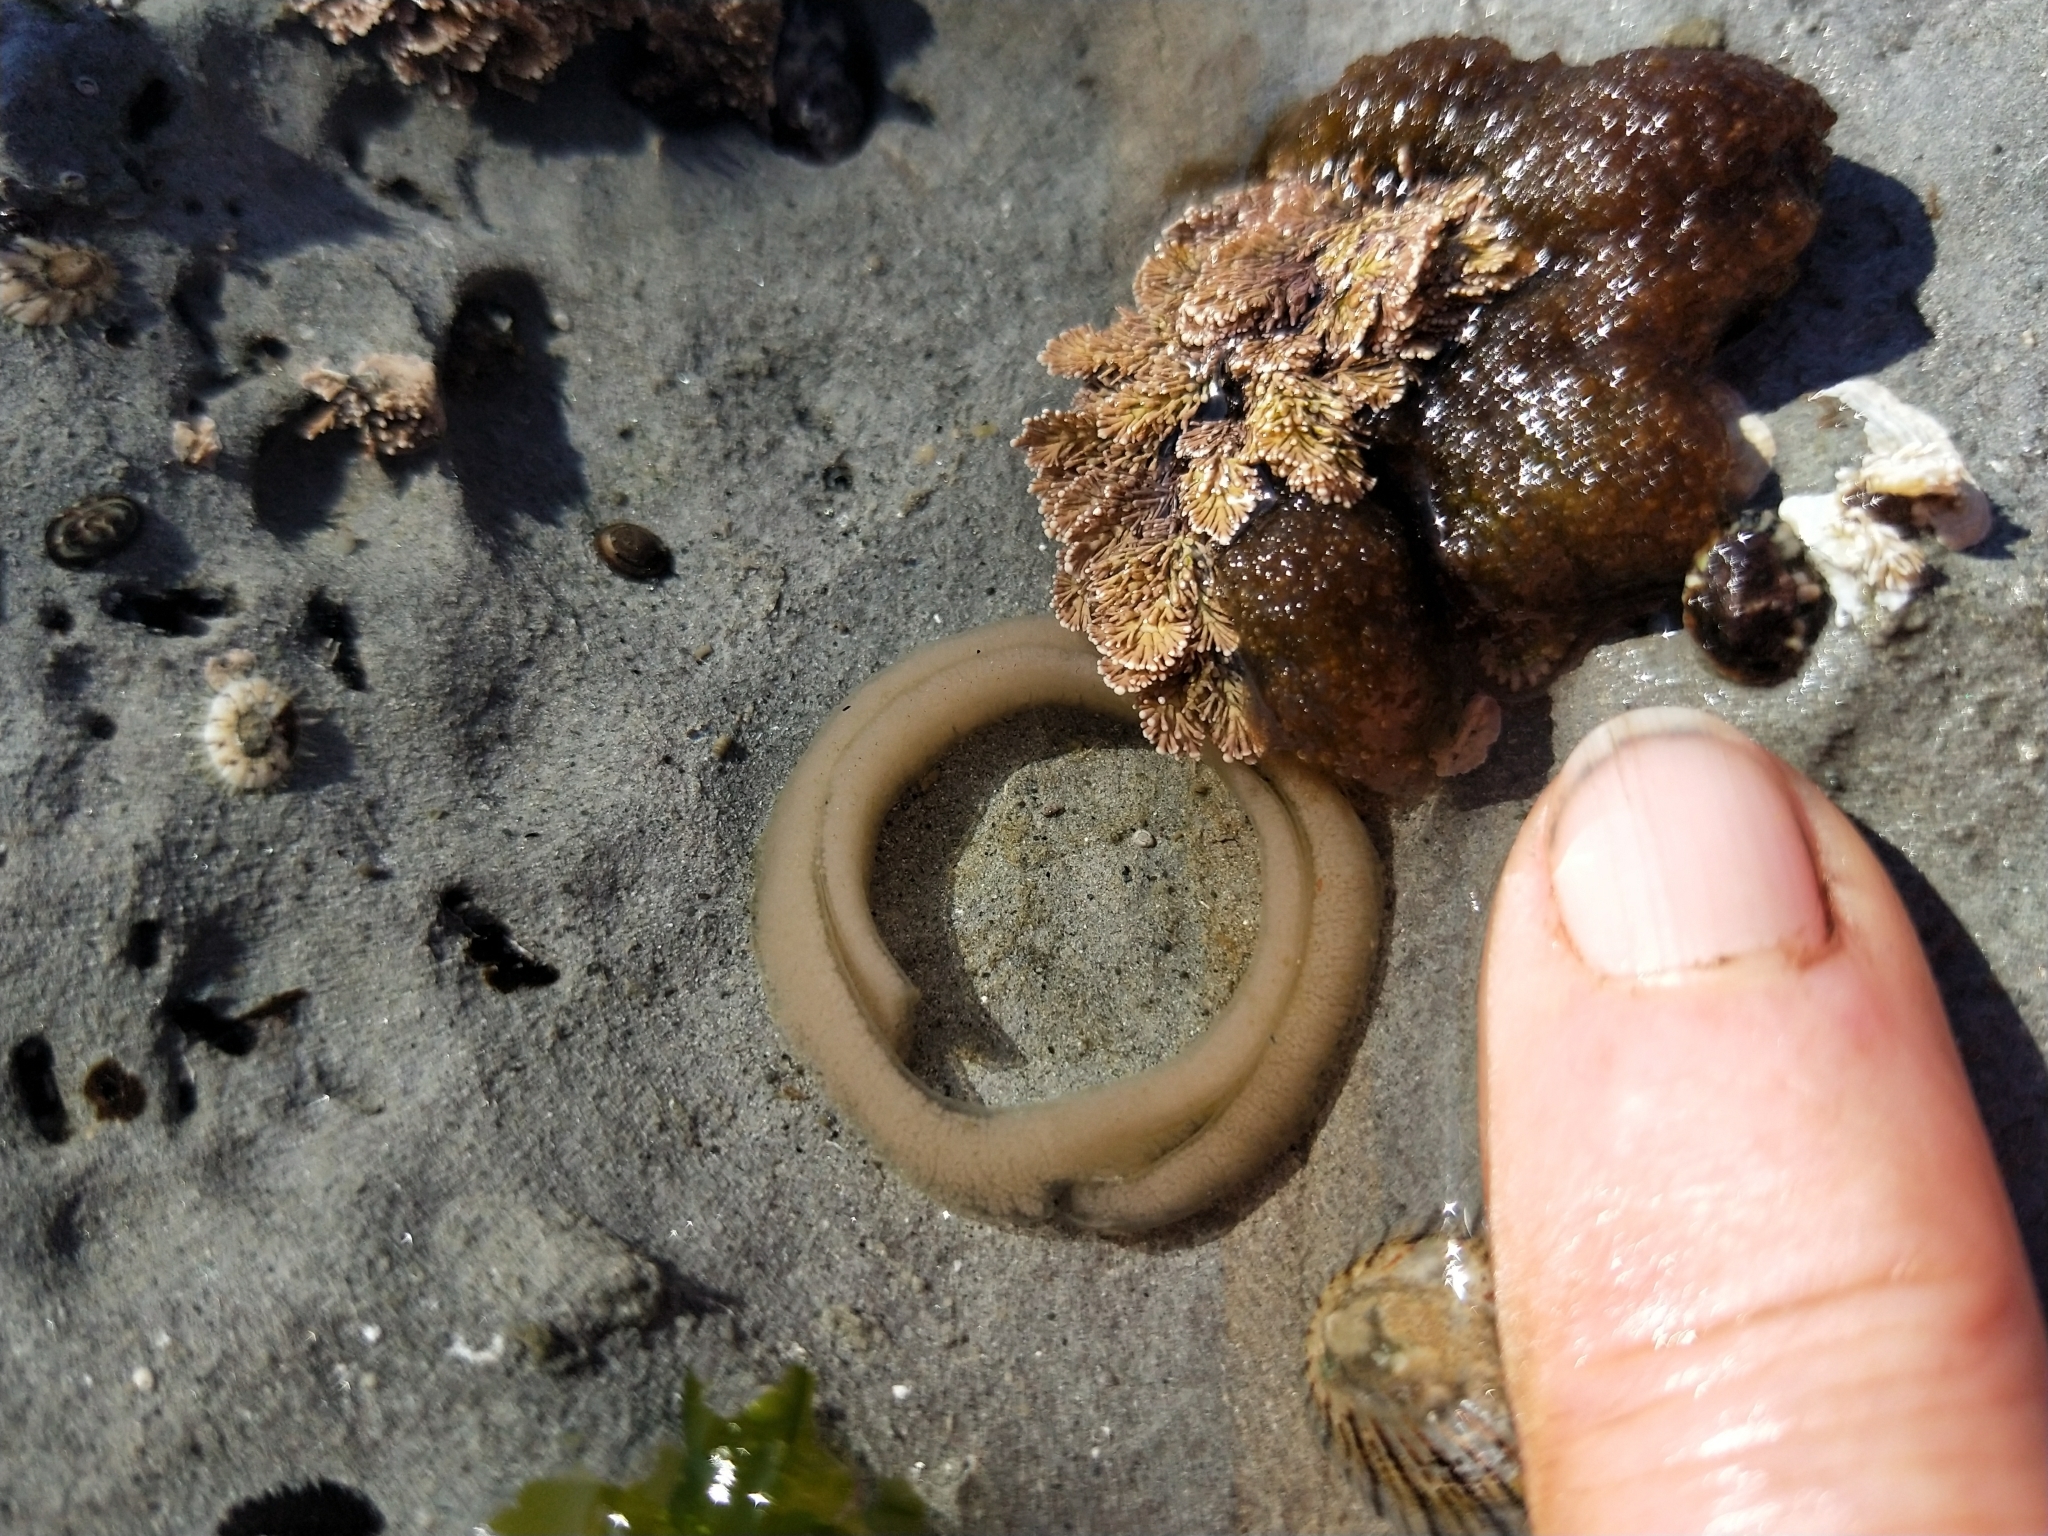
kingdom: Animalia
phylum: Mollusca
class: Gastropoda
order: Siphonariida
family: Siphonariidae
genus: Benhamina
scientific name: Benhamina obliquata
